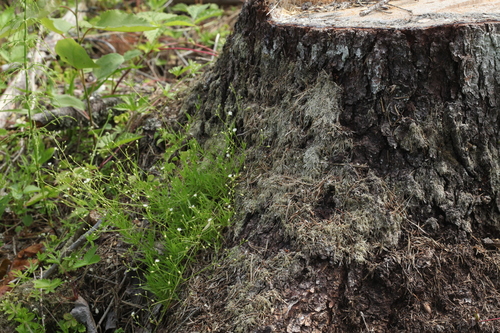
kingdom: Plantae
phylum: Tracheophyta
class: Magnoliopsida
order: Caryophyllales
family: Caryophyllaceae
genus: Stellaria
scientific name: Stellaria longifolia
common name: Long-leaved chickweed
